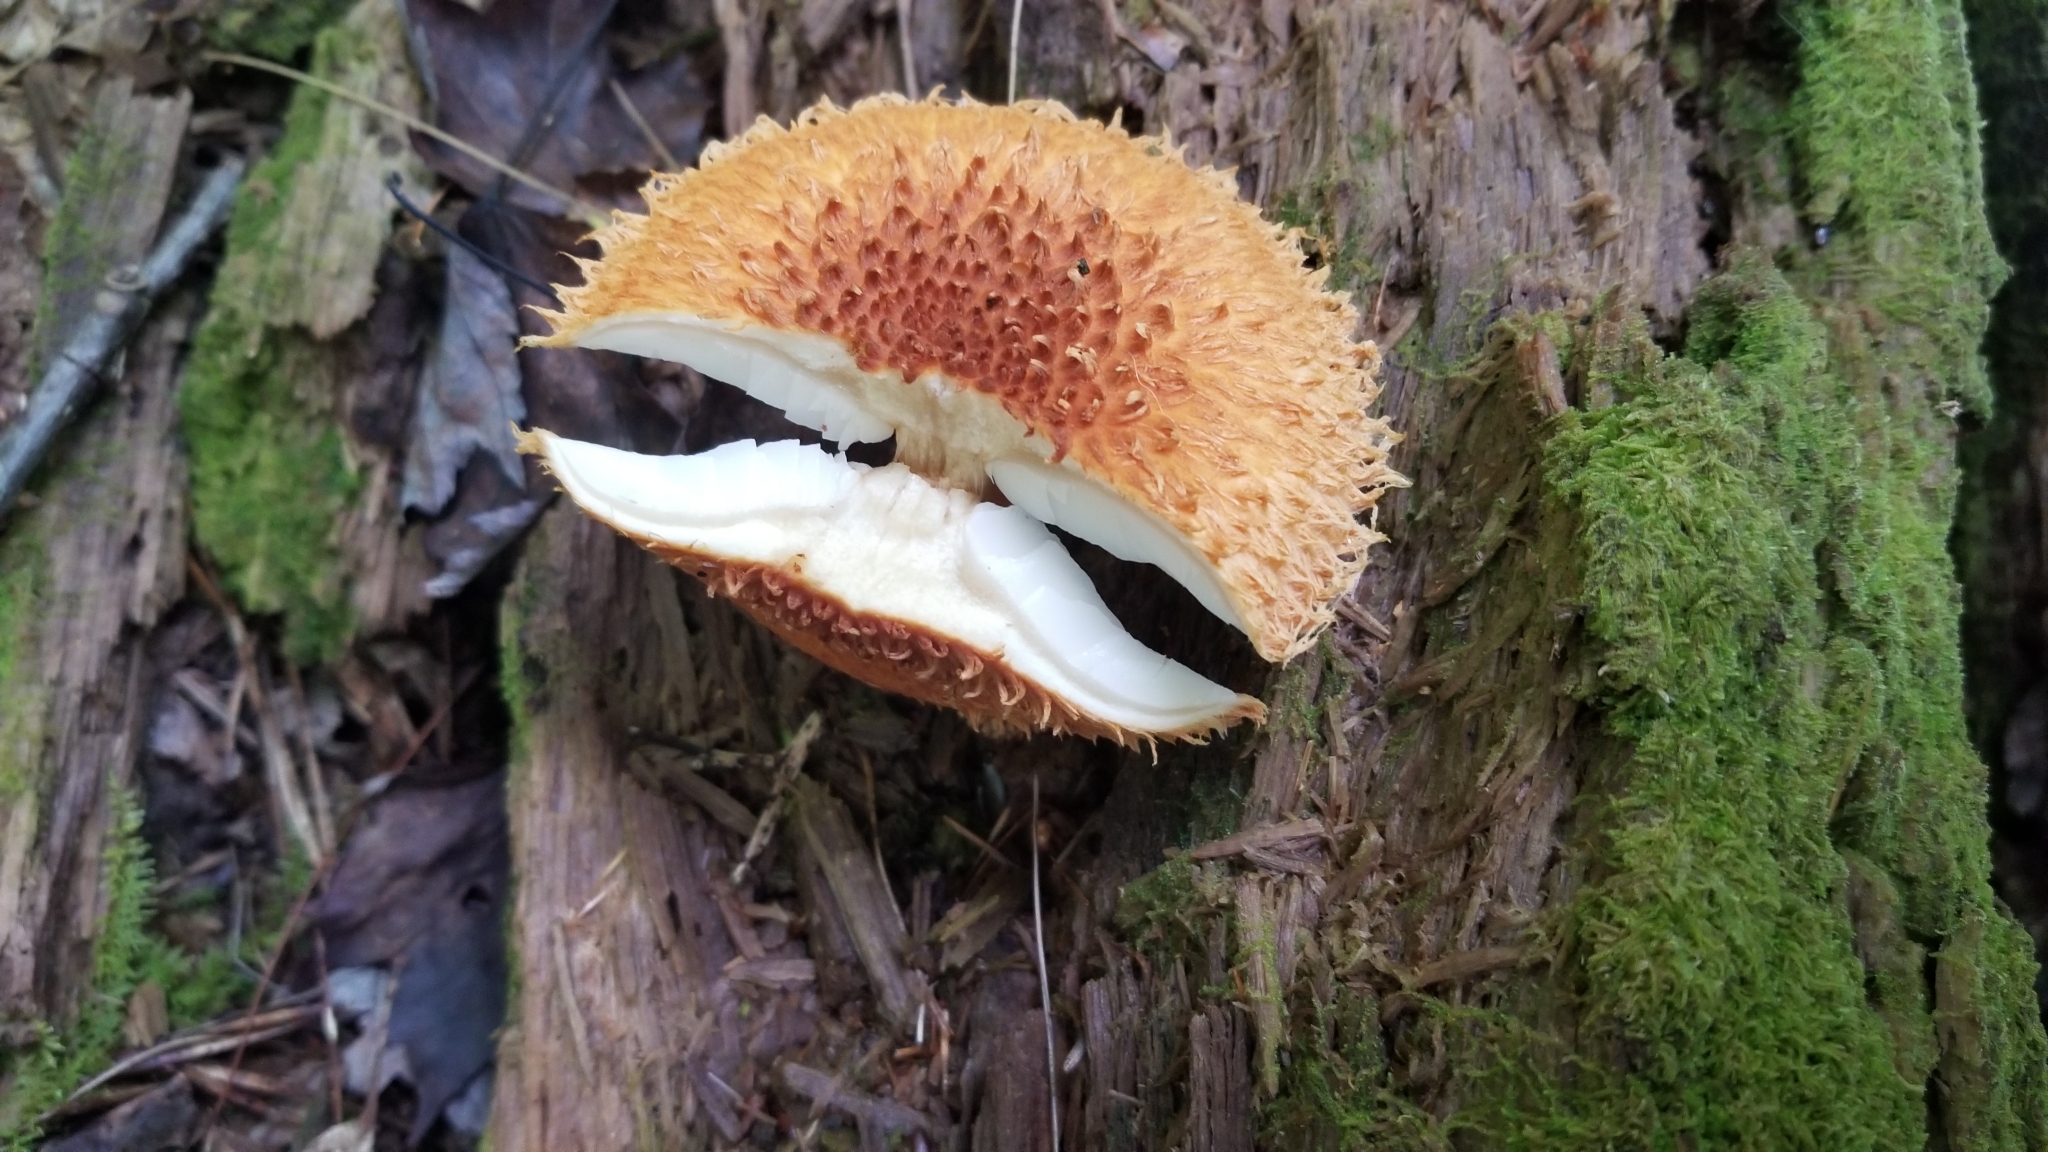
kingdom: Fungi
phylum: Basidiomycota
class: Agaricomycetes
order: Agaricales
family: Agaricaceae
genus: Leucopholiota
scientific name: Leucopholiota decorosa
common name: Decorated pholiota
